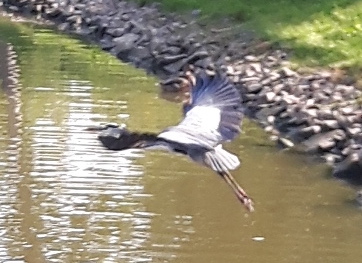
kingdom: Animalia
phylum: Chordata
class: Aves
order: Pelecaniformes
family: Ardeidae
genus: Ardea
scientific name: Ardea cinerea
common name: Grey heron
